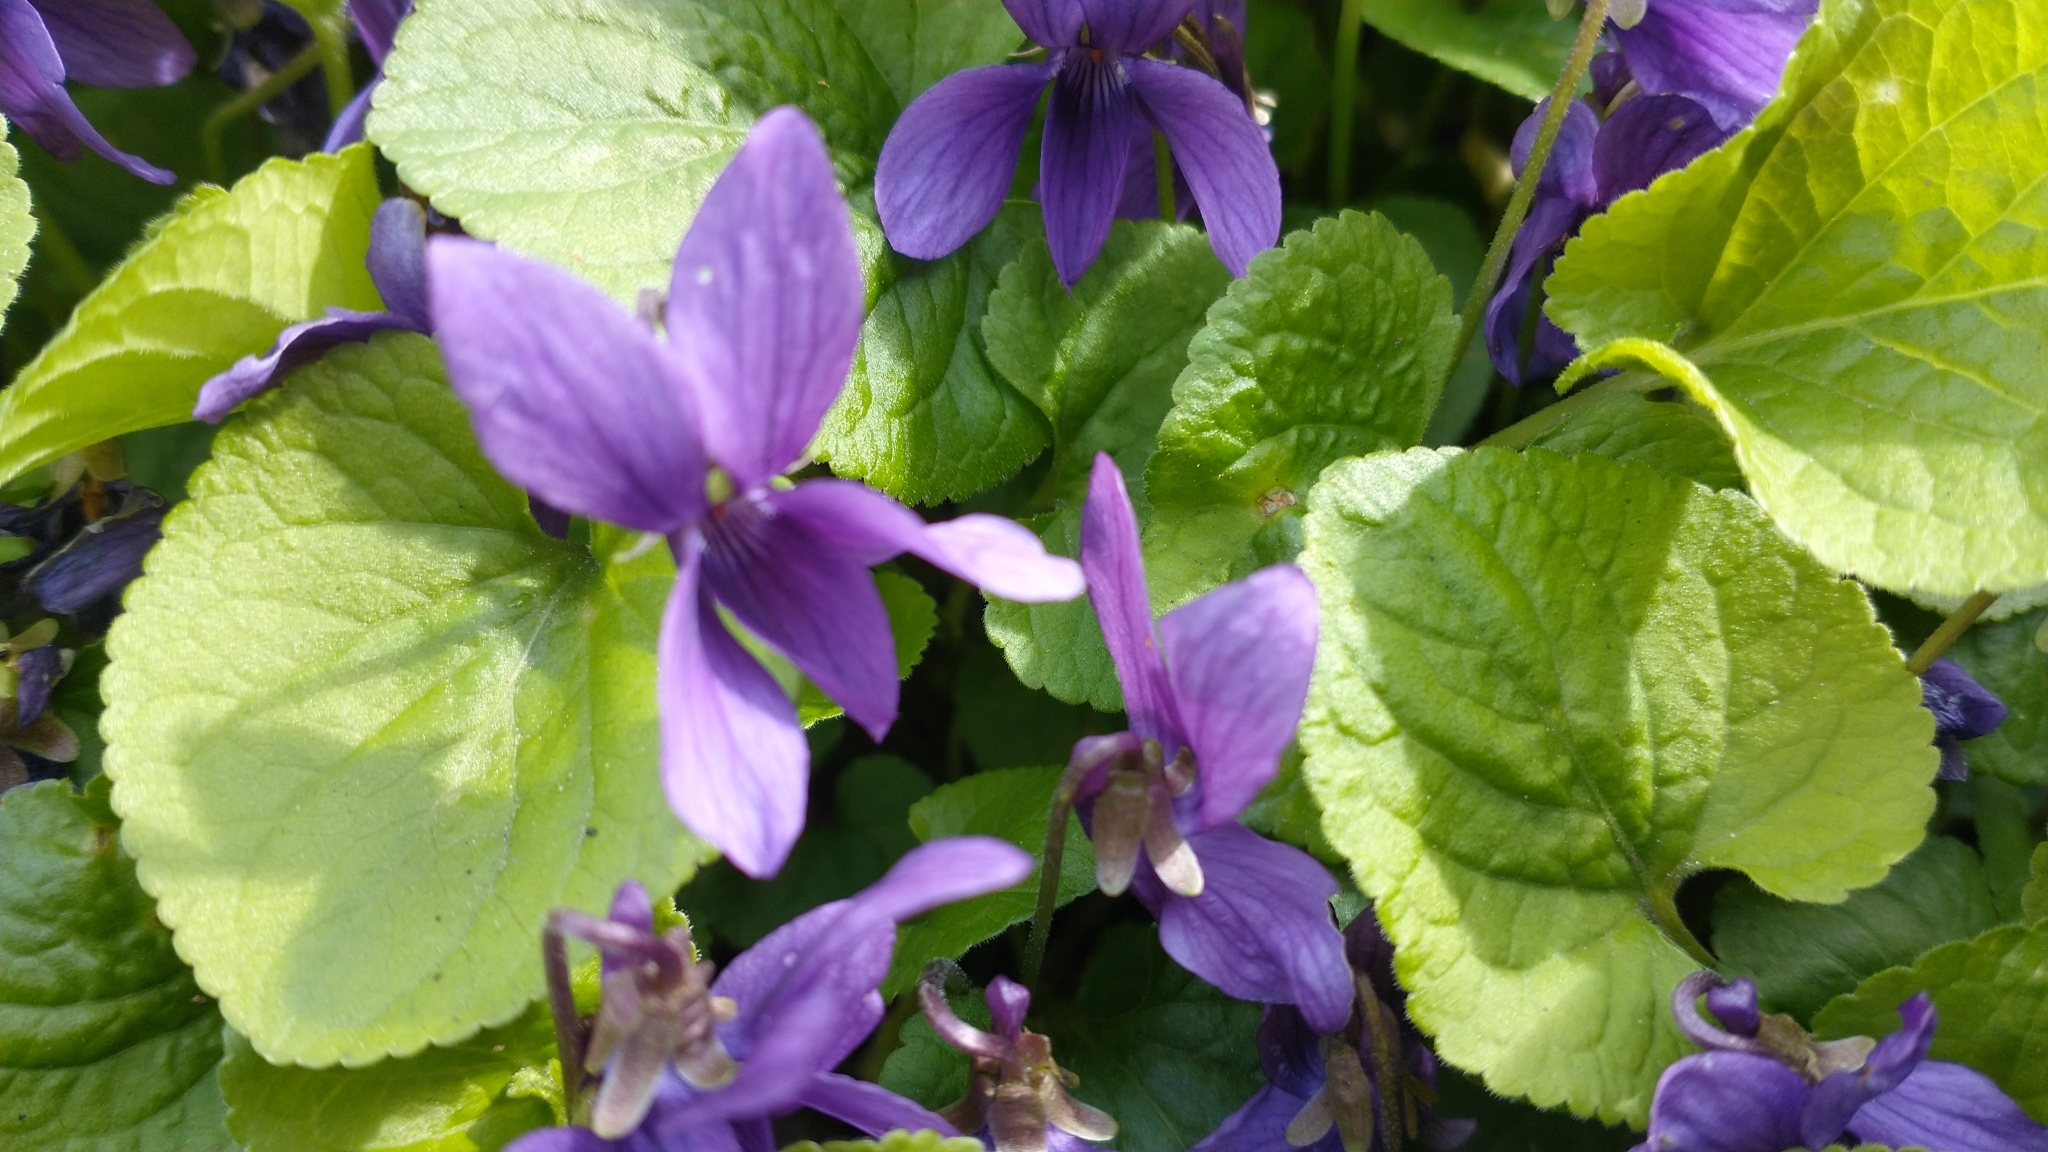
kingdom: Plantae
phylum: Tracheophyta
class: Magnoliopsida
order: Malpighiales
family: Violaceae
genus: Viola
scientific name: Viola odorata
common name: Sweet violet
